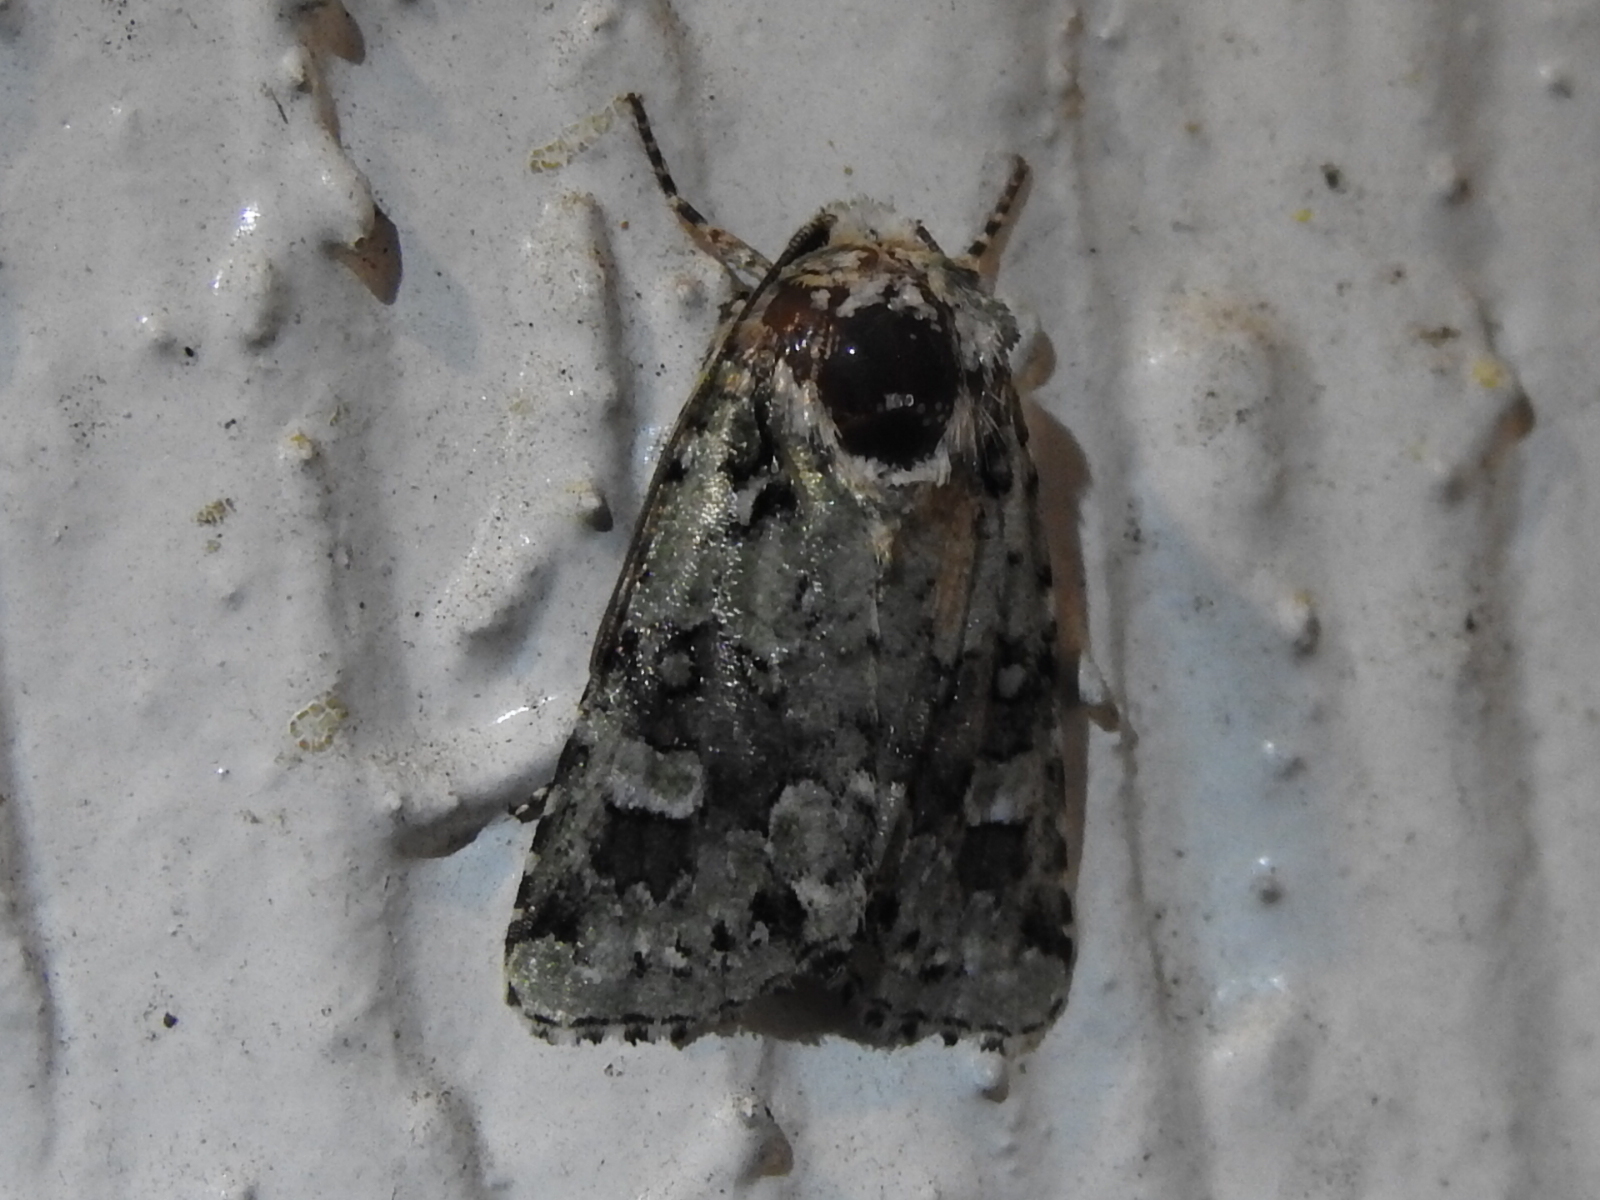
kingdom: Animalia
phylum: Arthropoda
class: Insecta
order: Lepidoptera
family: Noctuidae
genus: Lacinipolia
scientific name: Lacinipolia laudabilis
